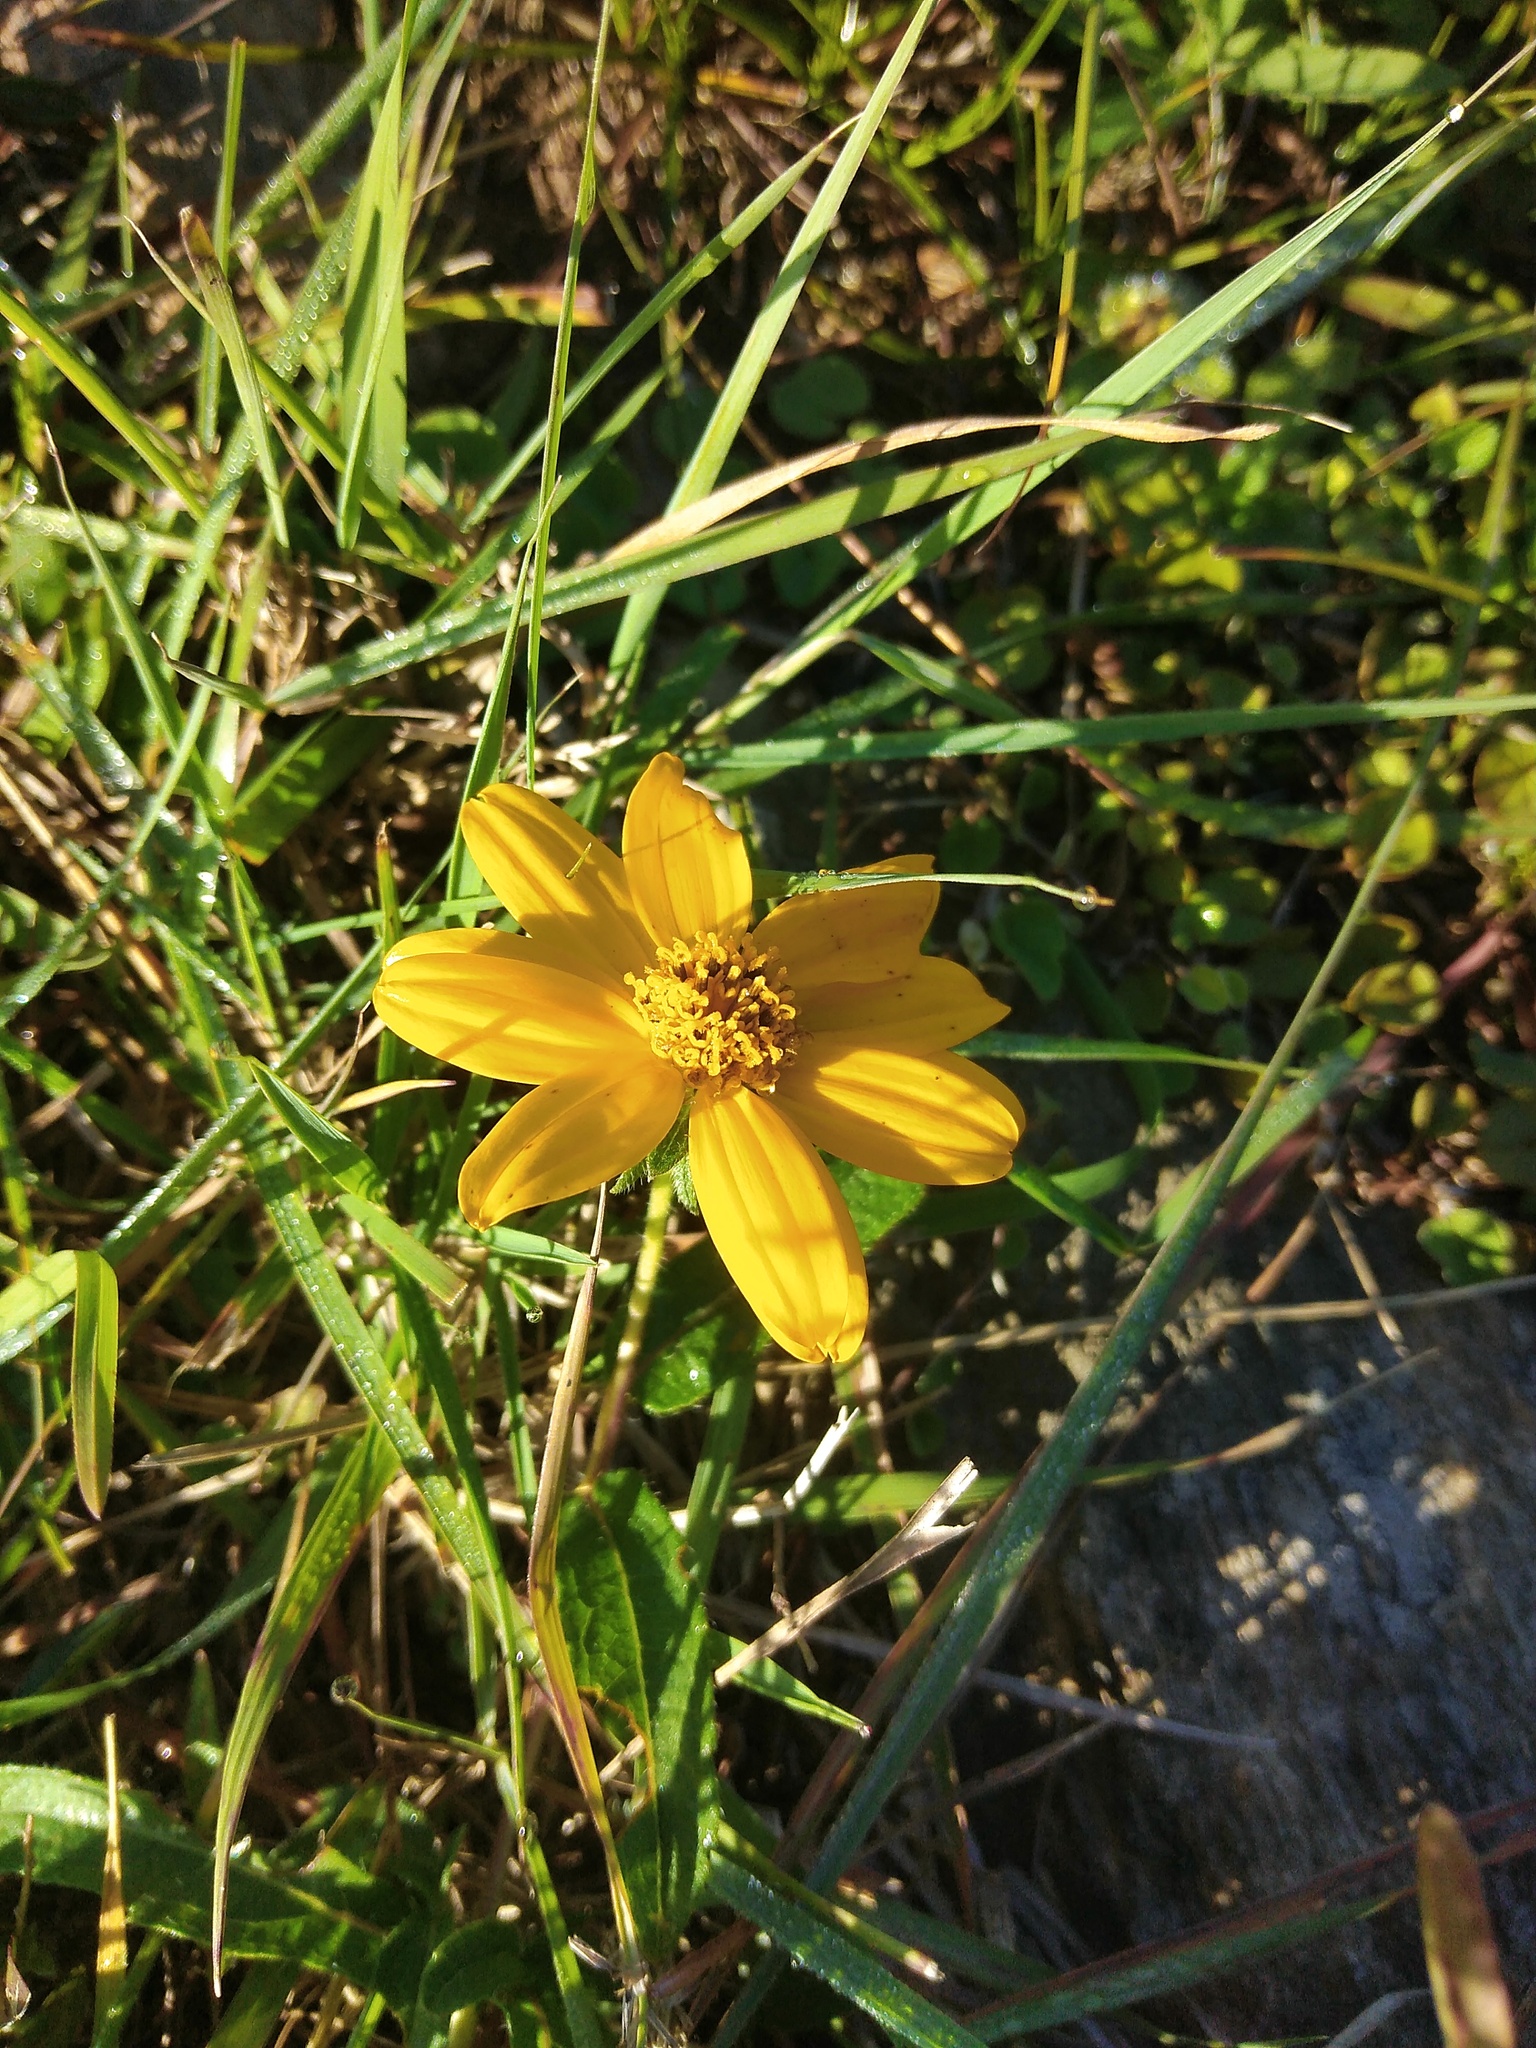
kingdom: Plantae
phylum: Tracheophyta
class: Magnoliopsida
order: Asterales
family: Asteraceae
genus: Wedelia
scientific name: Wedelia montevidensis
